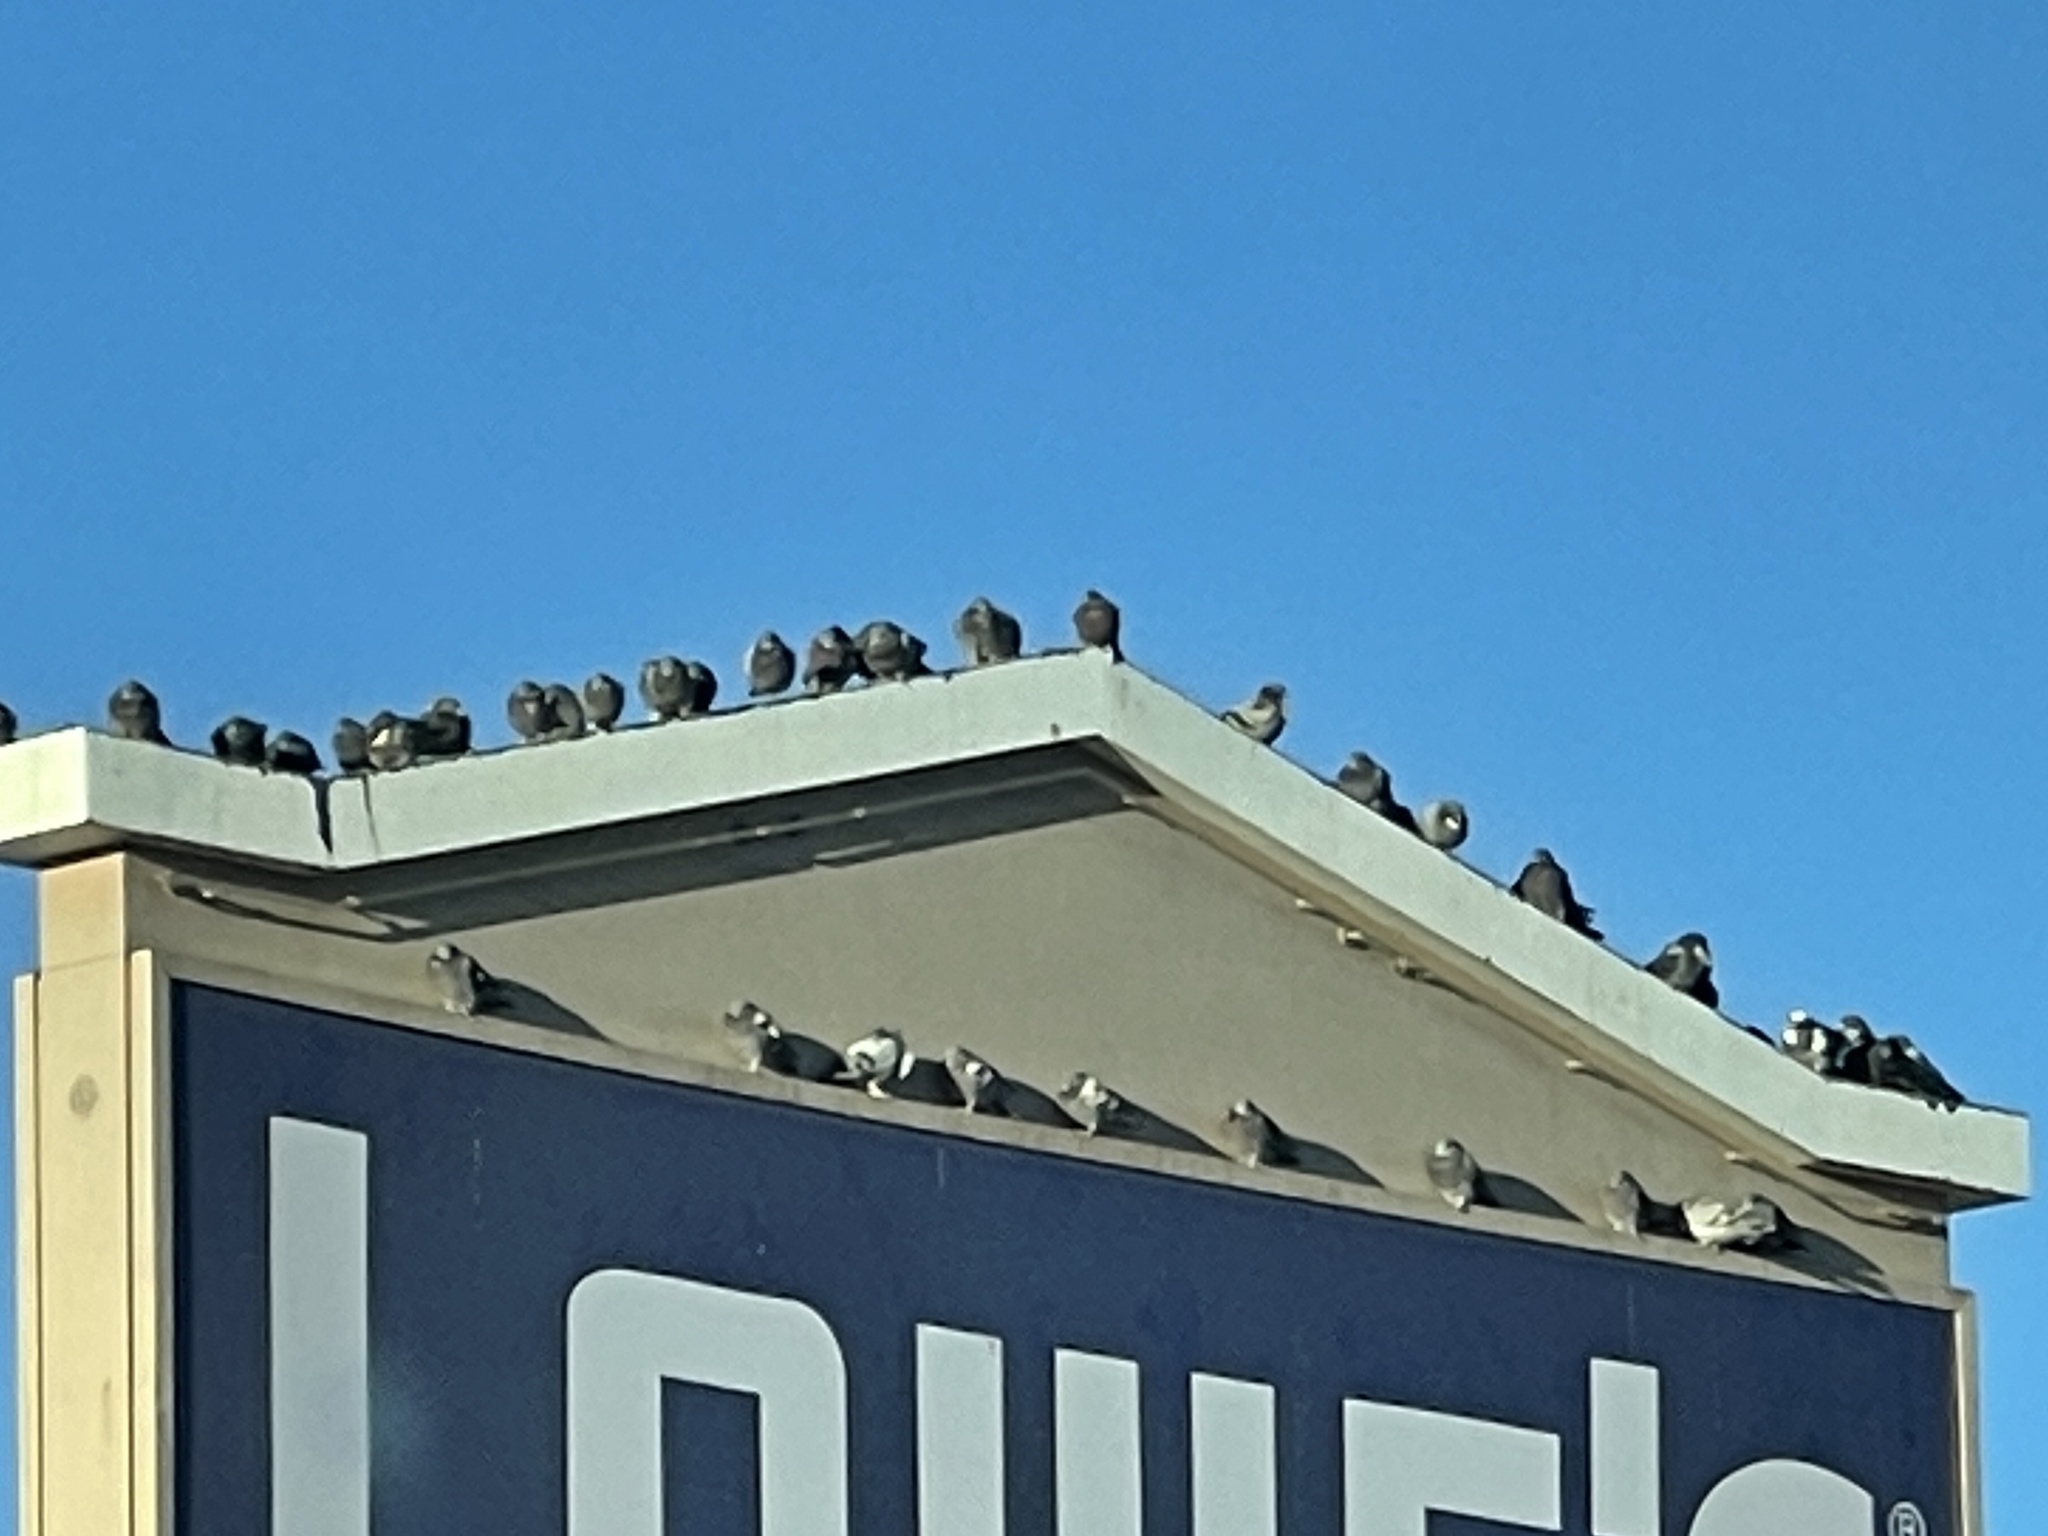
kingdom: Animalia
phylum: Chordata
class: Aves
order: Columbiformes
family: Columbidae
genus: Columba
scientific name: Columba livia
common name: Rock pigeon
